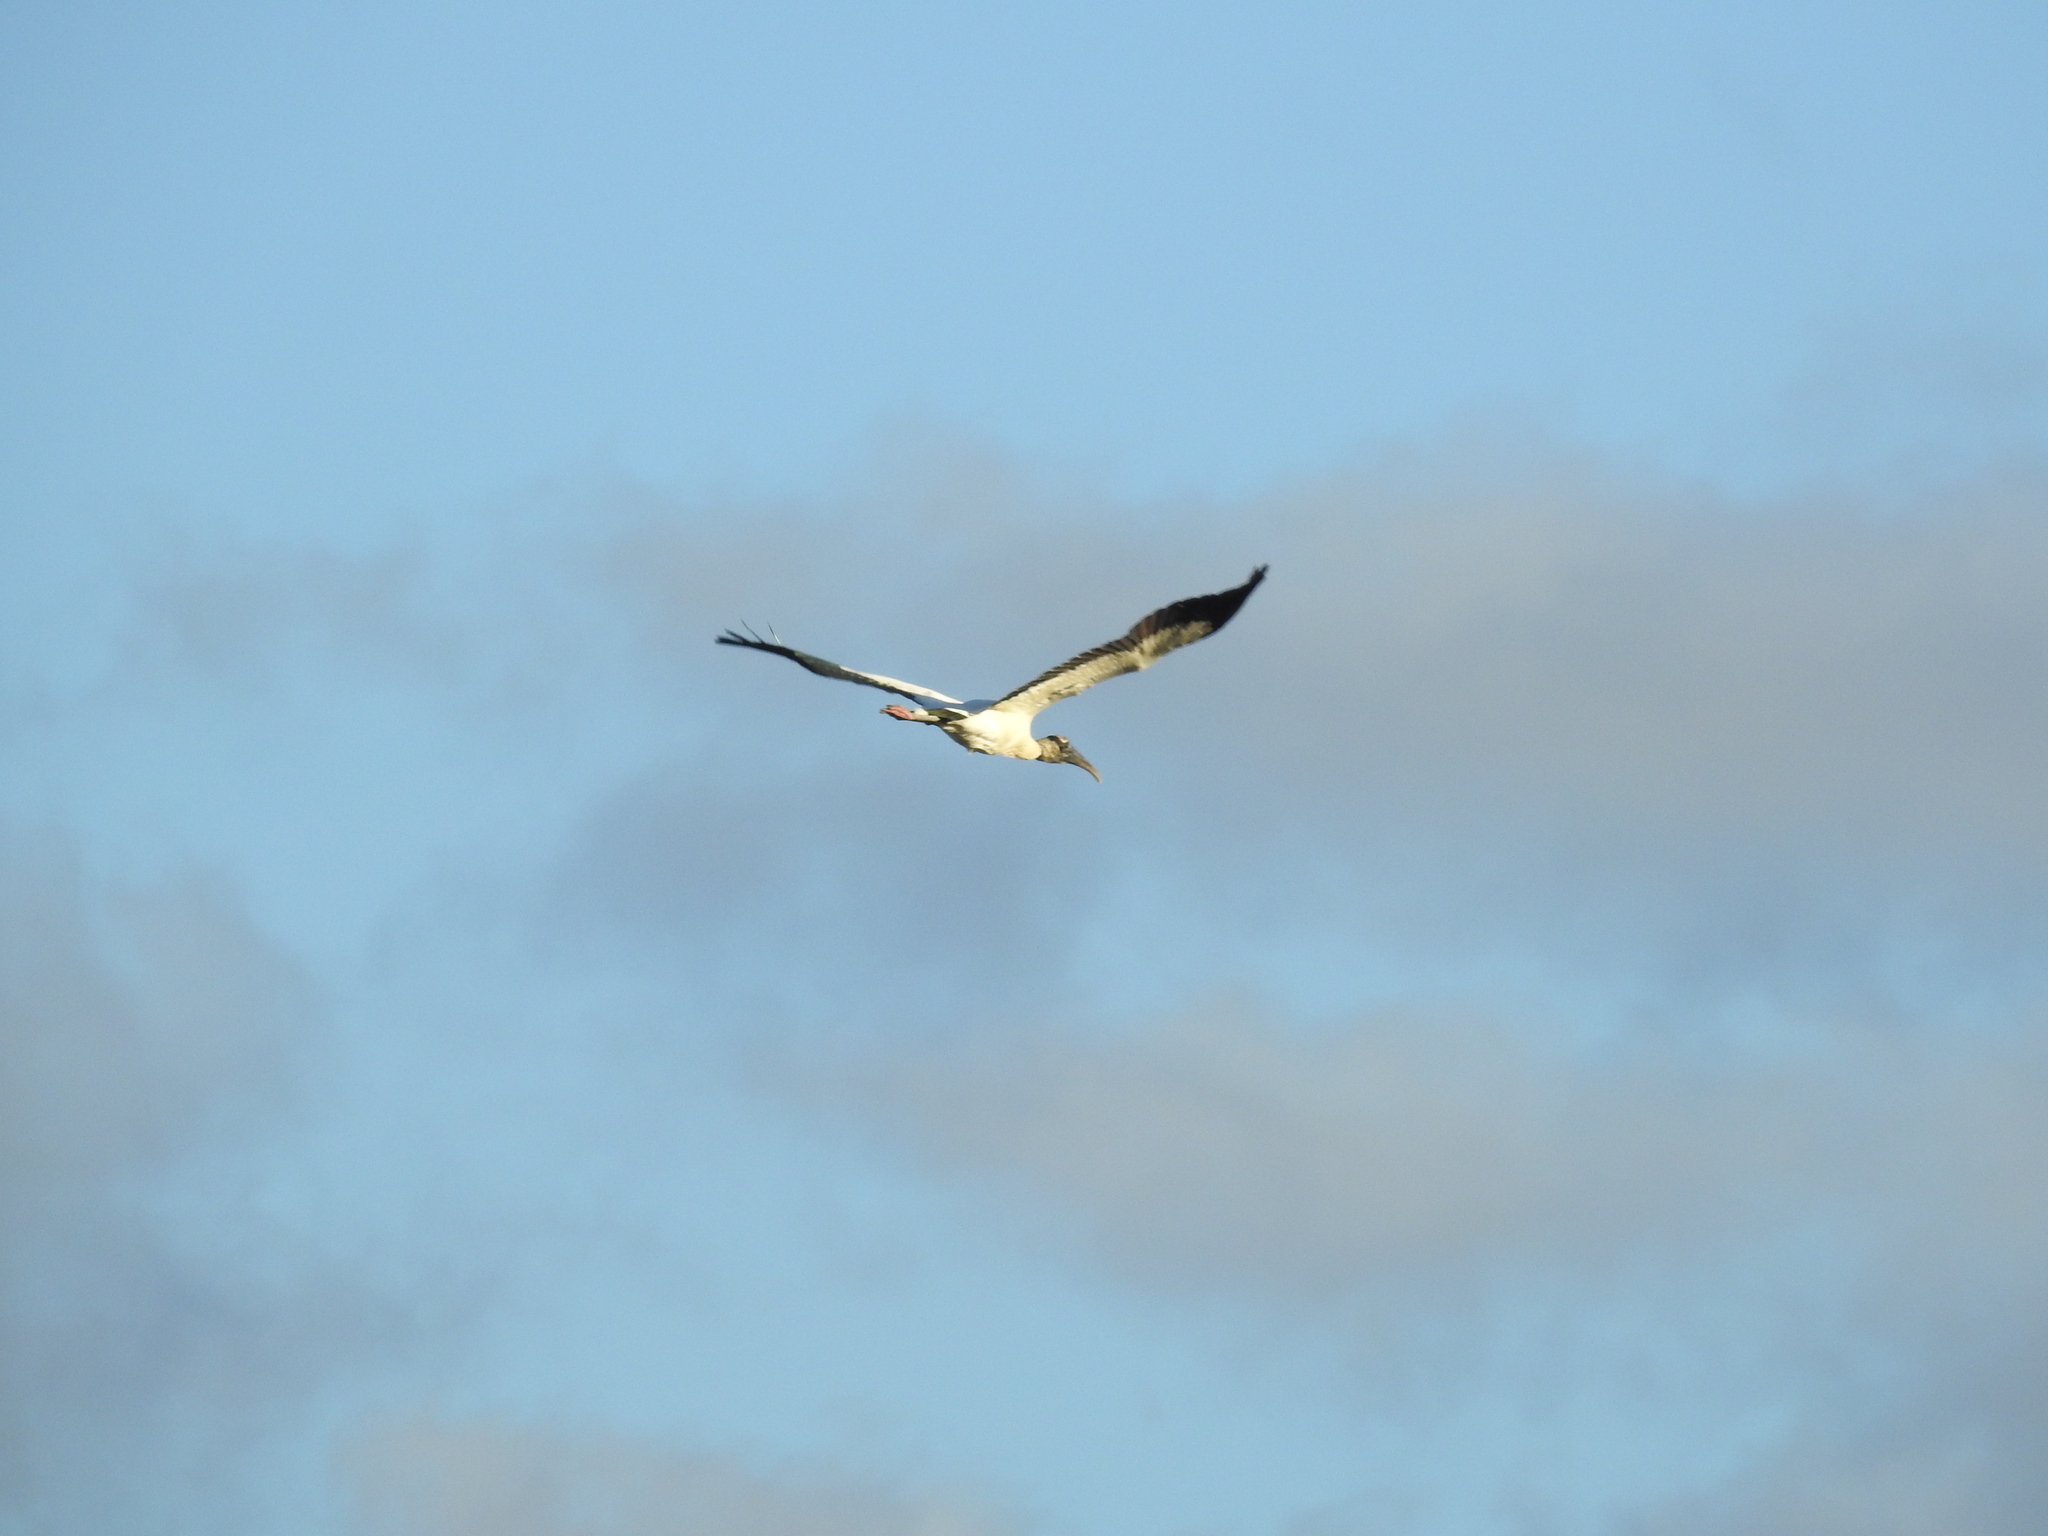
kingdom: Animalia
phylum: Chordata
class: Aves
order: Ciconiiformes
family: Ciconiidae
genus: Mycteria
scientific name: Mycteria americana
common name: Wood stork
